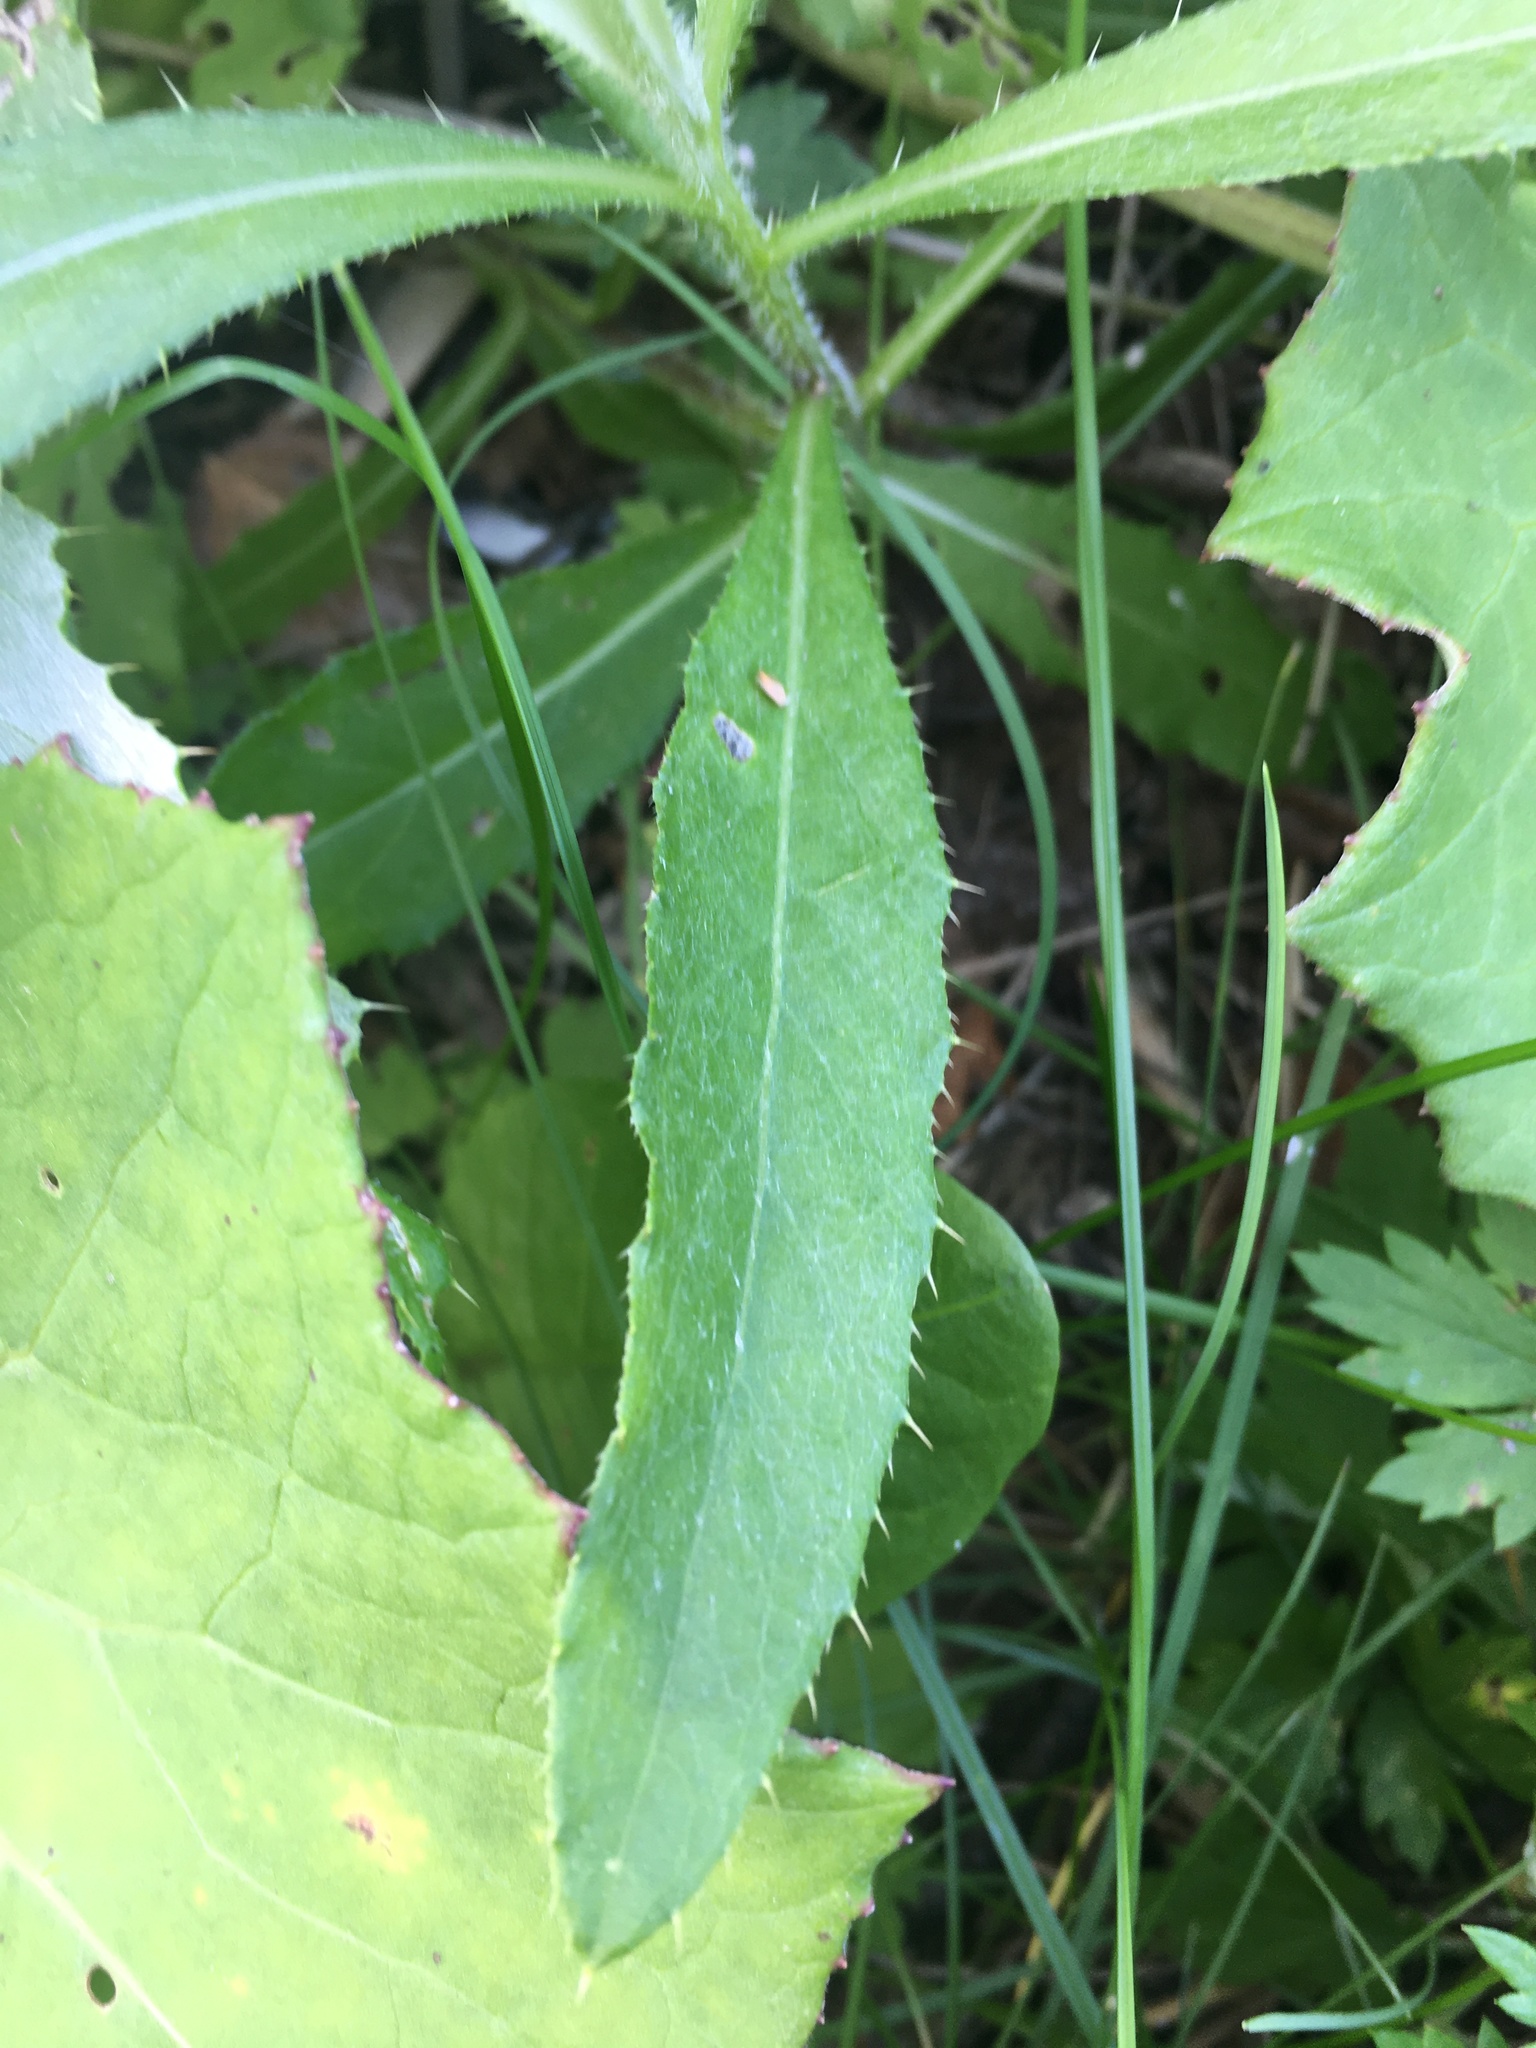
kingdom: Plantae
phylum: Tracheophyta
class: Magnoliopsida
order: Asterales
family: Asteraceae
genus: Cirsium
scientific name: Cirsium arvense
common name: Creeping thistle
